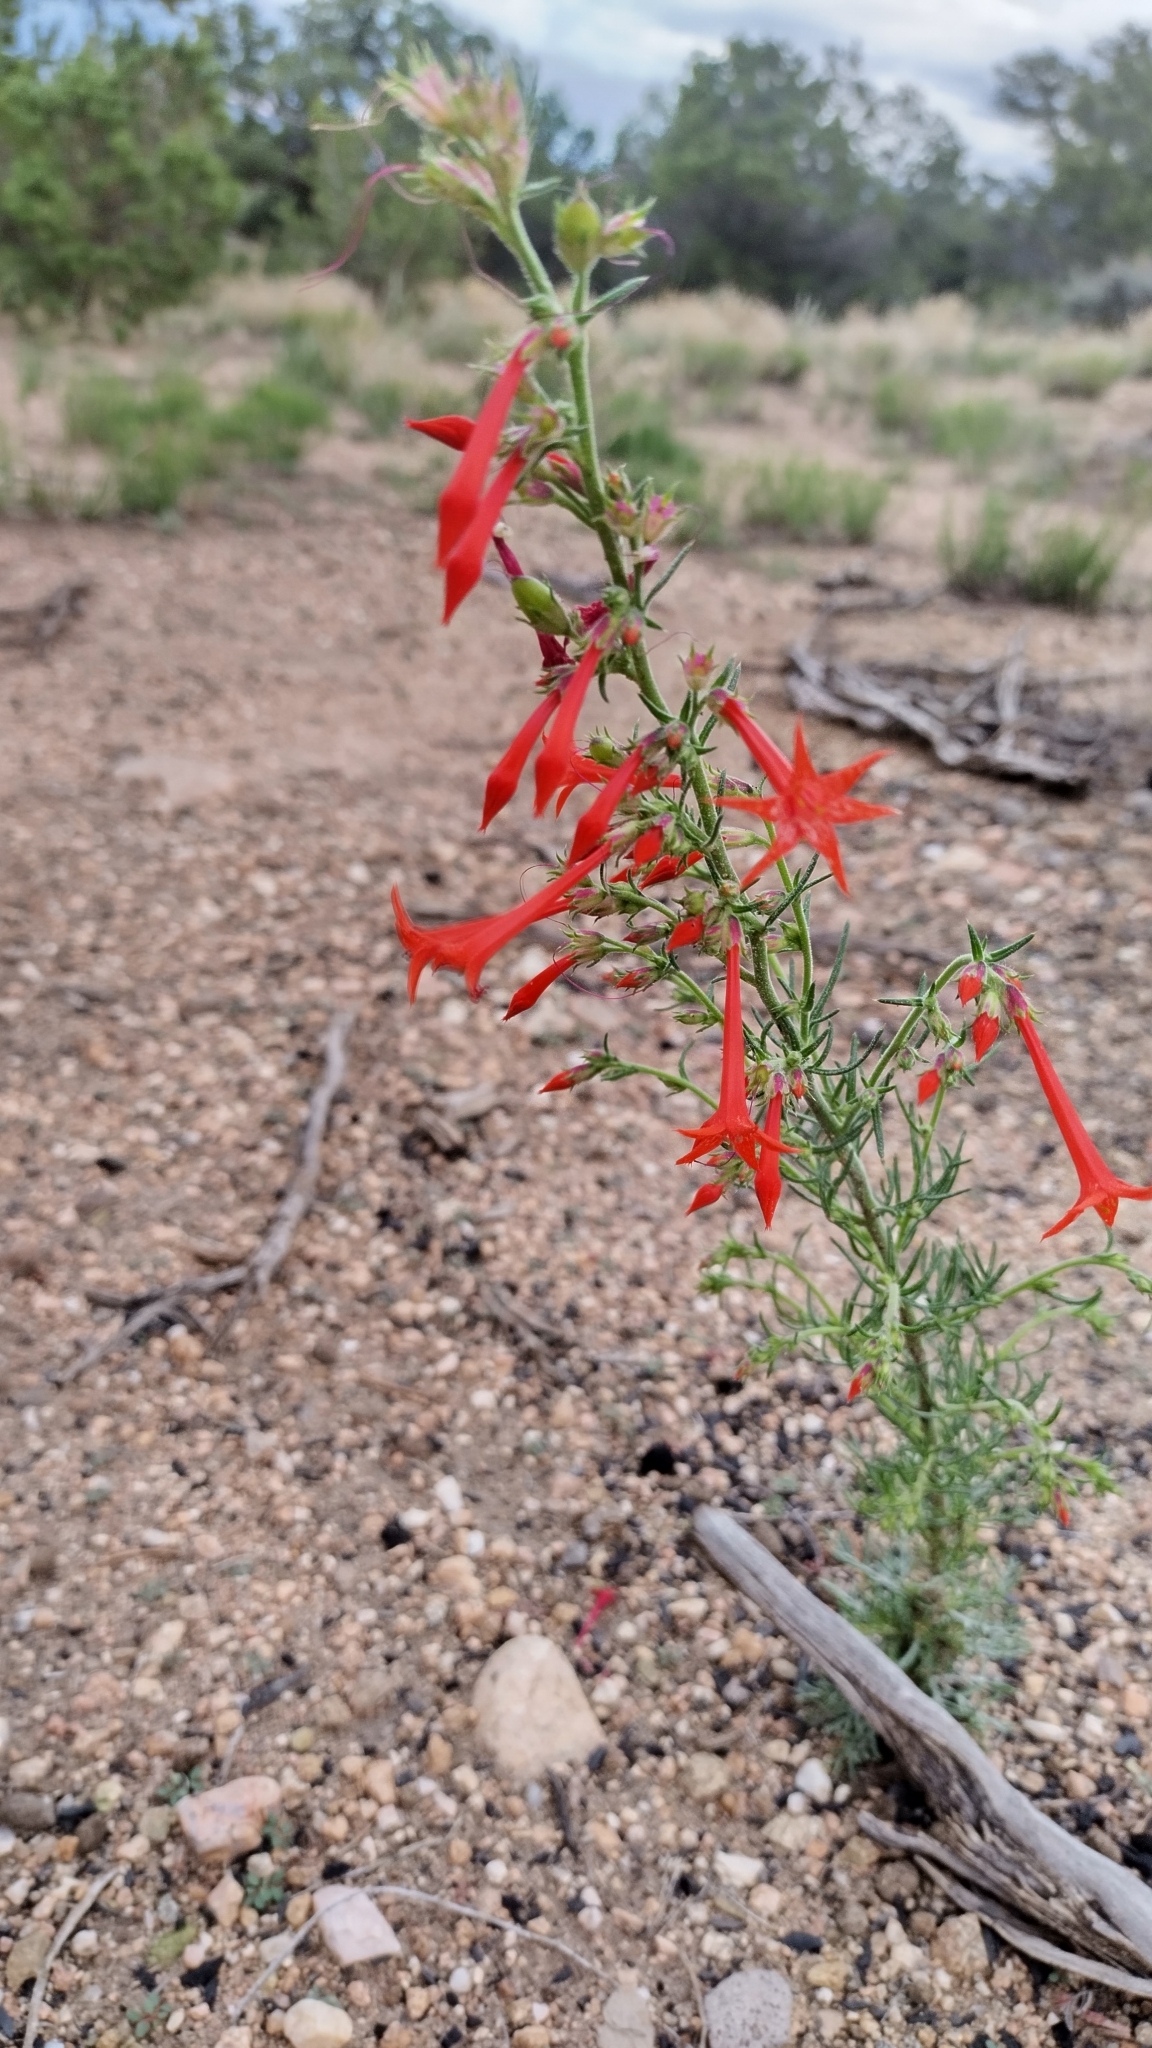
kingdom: Plantae
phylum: Tracheophyta
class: Magnoliopsida
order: Ericales
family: Polemoniaceae
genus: Ipomopsis
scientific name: Ipomopsis aggregata
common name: Scarlet gilia
